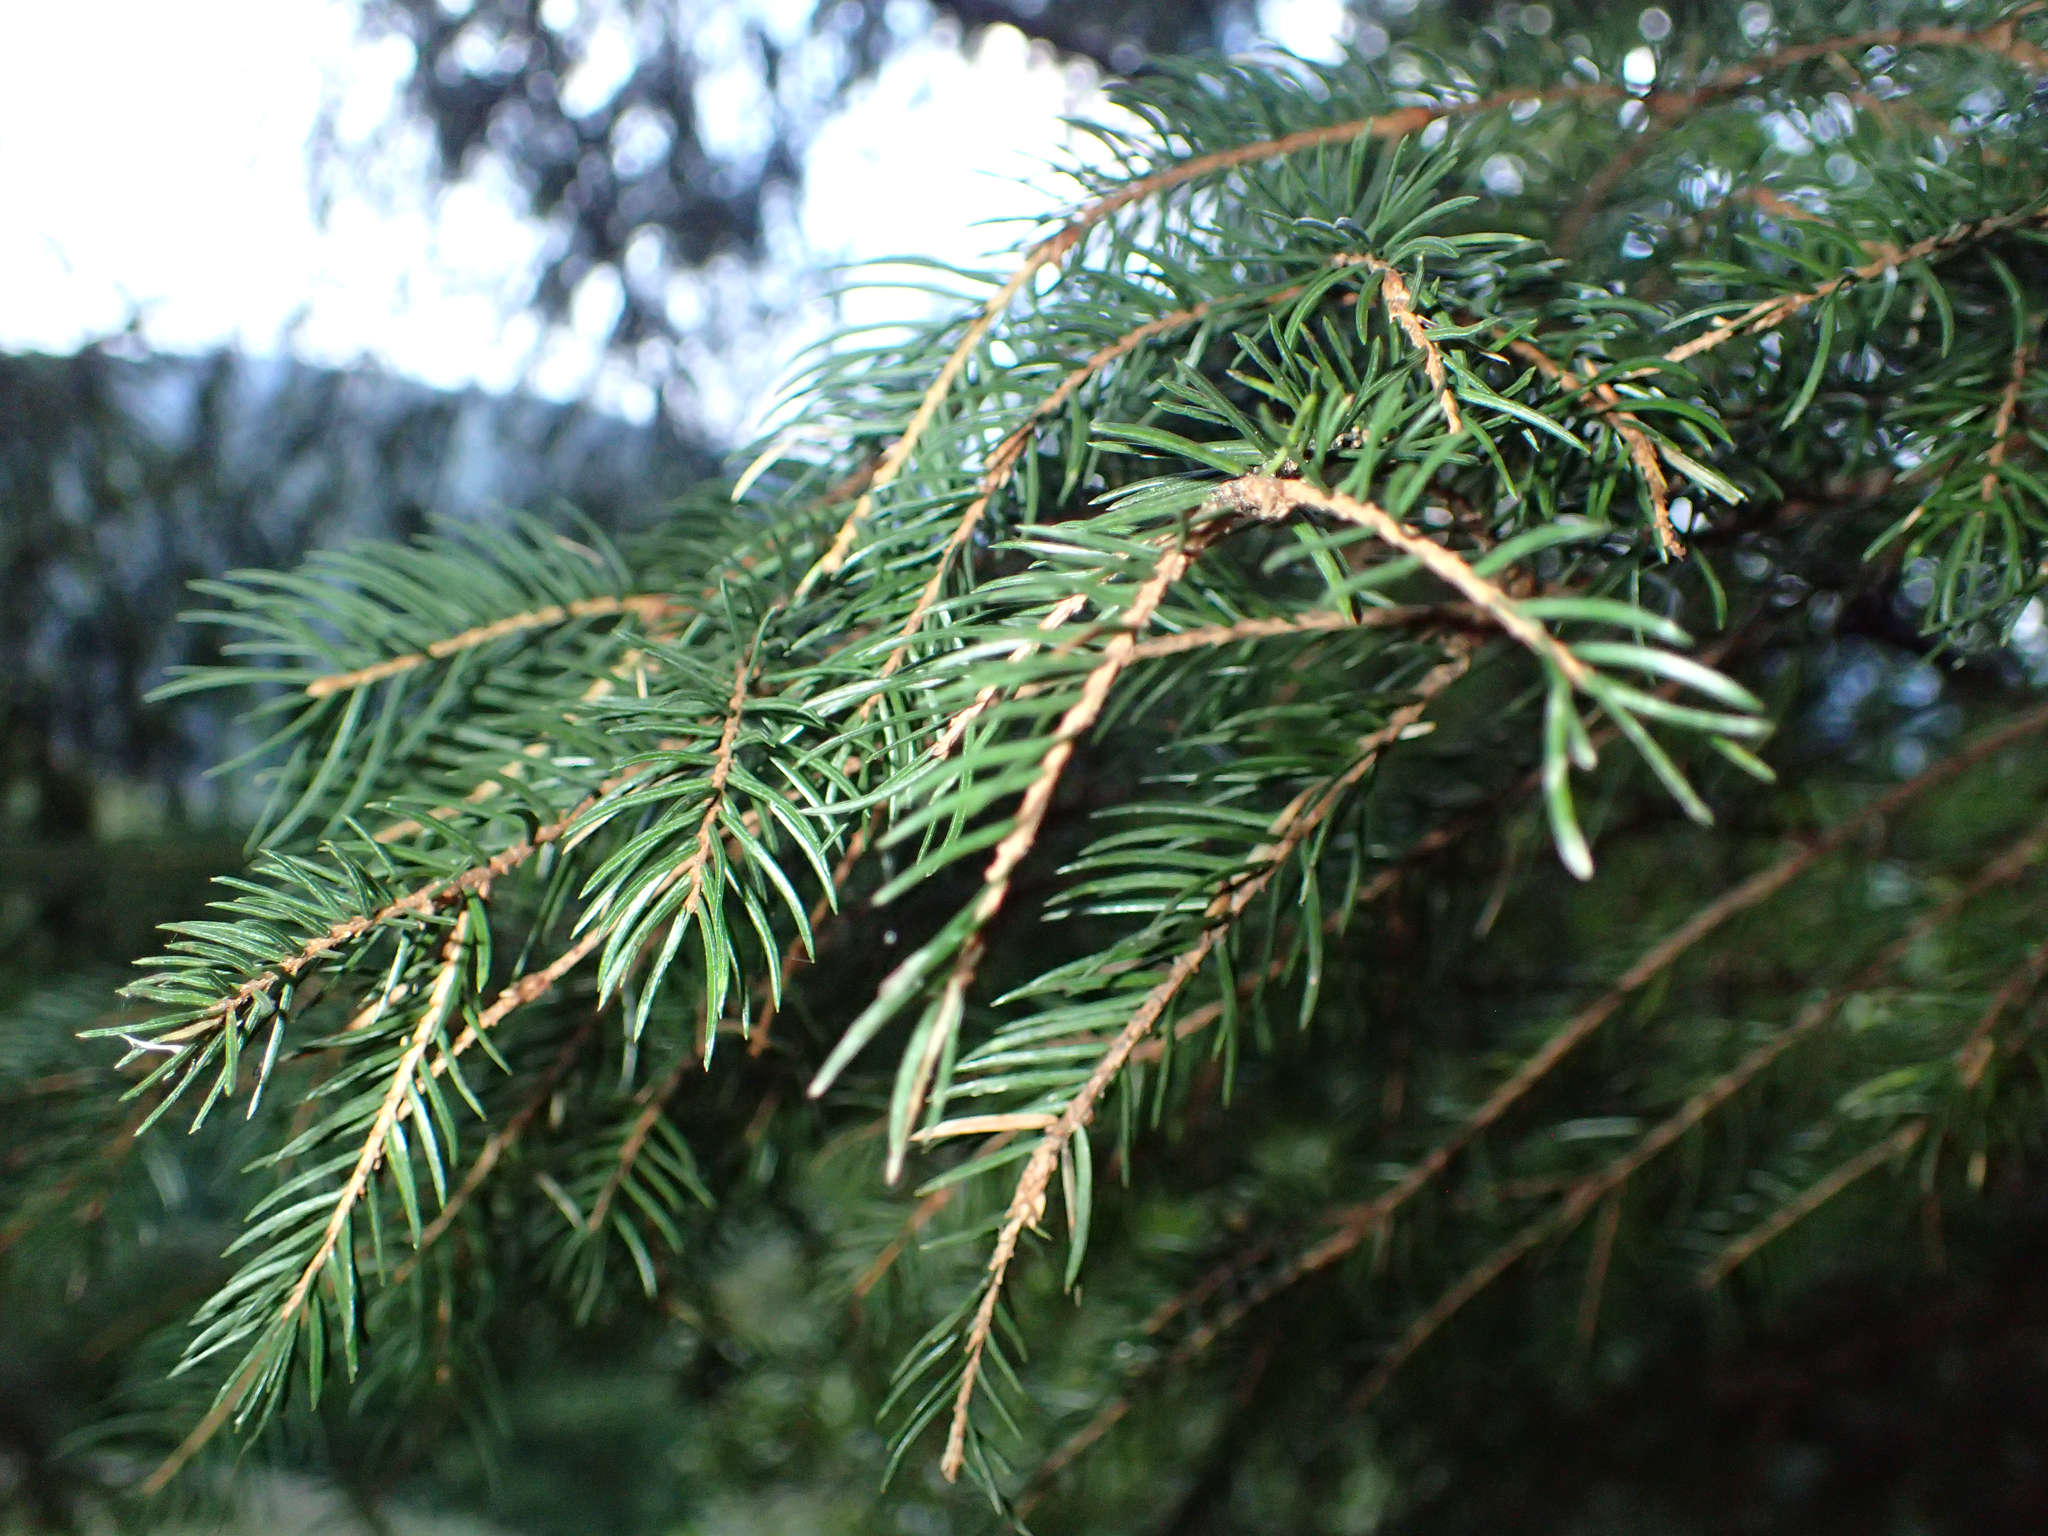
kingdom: Plantae
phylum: Tracheophyta
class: Pinopsida
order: Pinales
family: Pinaceae
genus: Picea
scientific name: Picea abies
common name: Norway spruce
